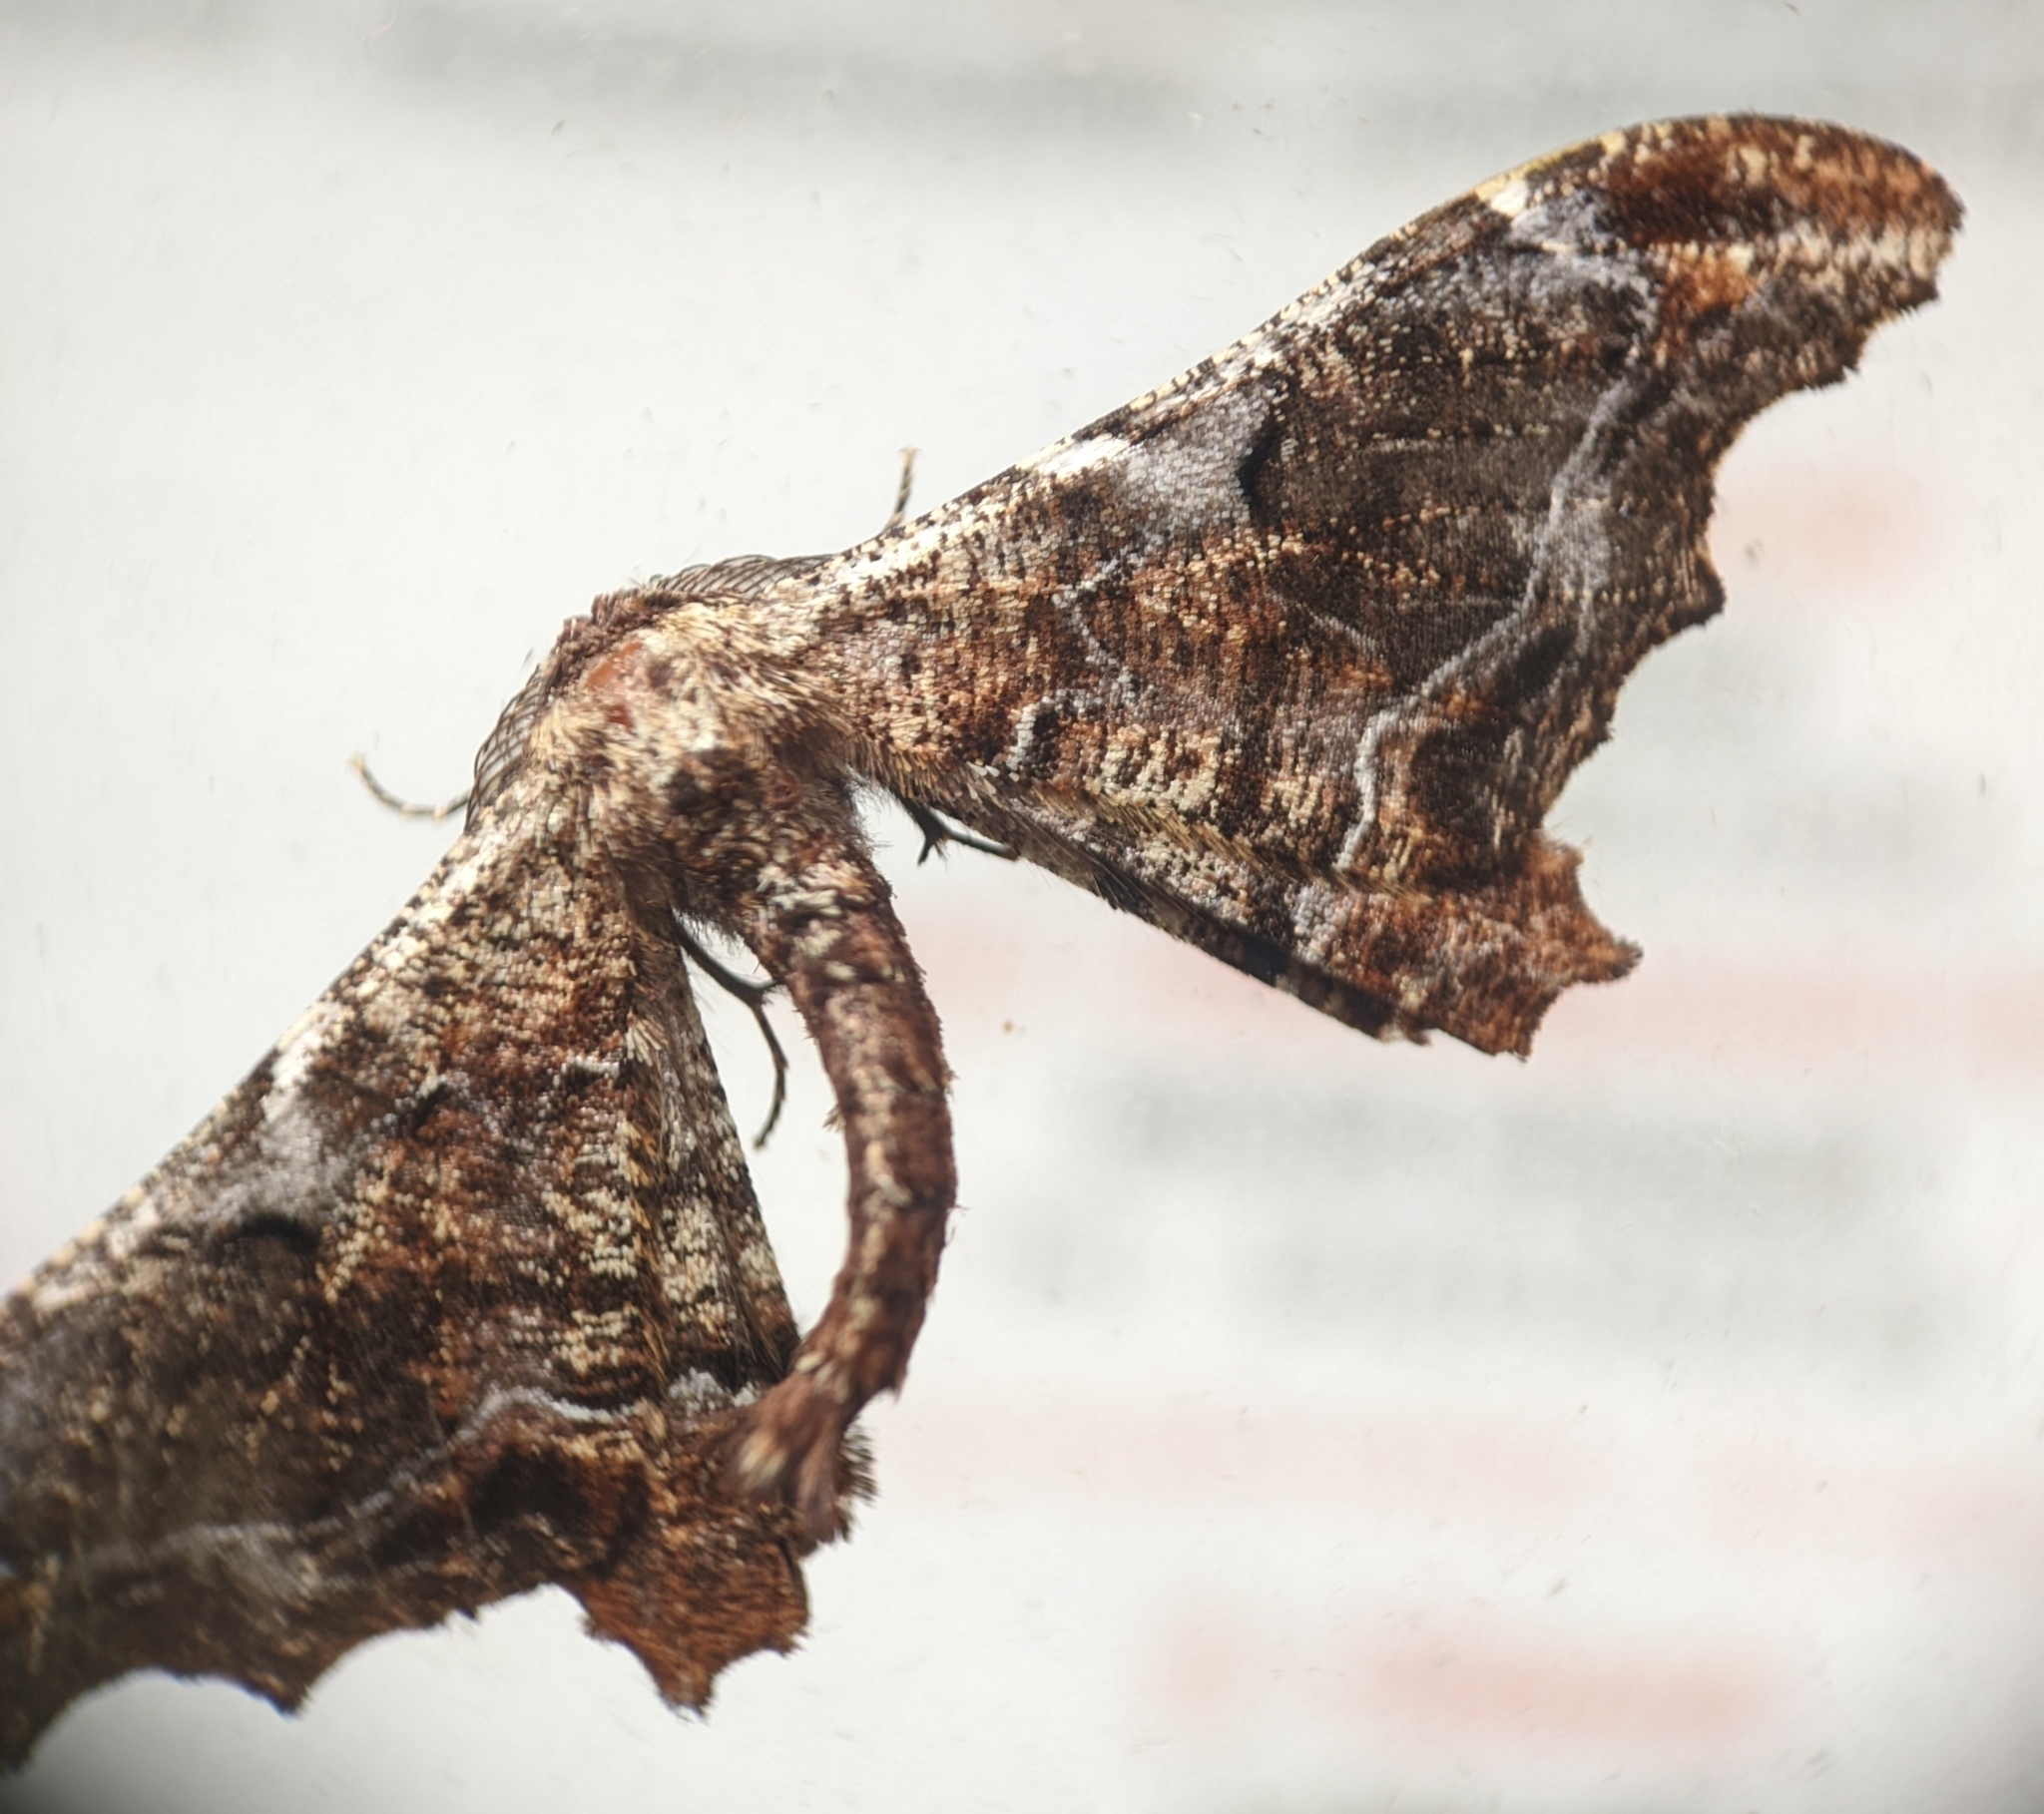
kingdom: Animalia
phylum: Arthropoda
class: Insecta
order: Lepidoptera
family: Geometridae
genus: Hyposidra
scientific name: Hyposidra violescens
